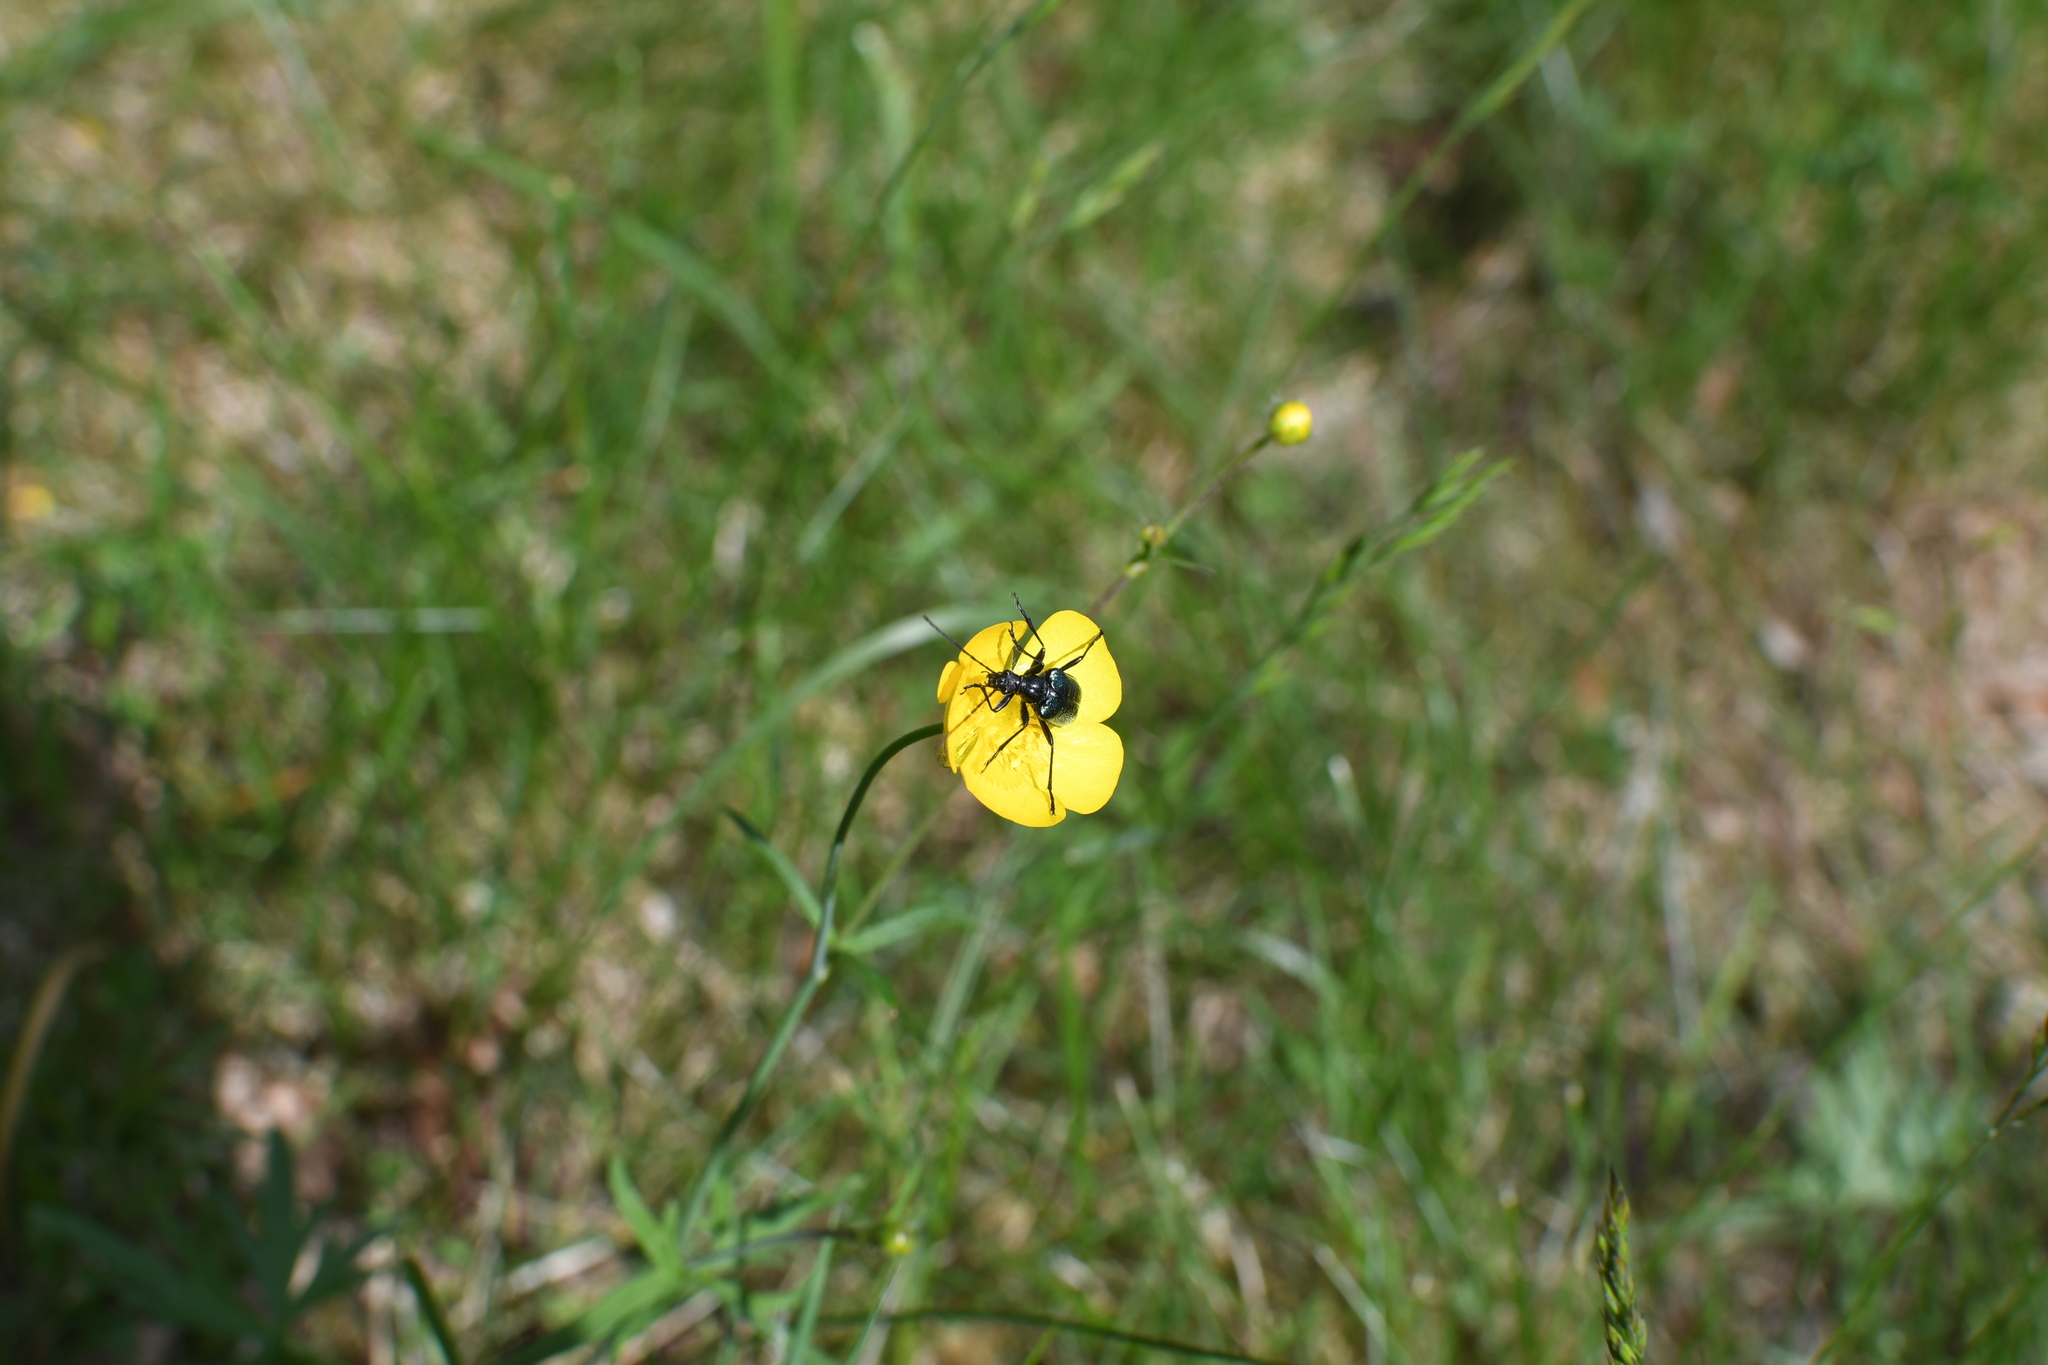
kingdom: Animalia
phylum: Arthropoda
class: Insecta
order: Coleoptera
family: Cerambycidae
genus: Gaurotes
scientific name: Gaurotes virginea
